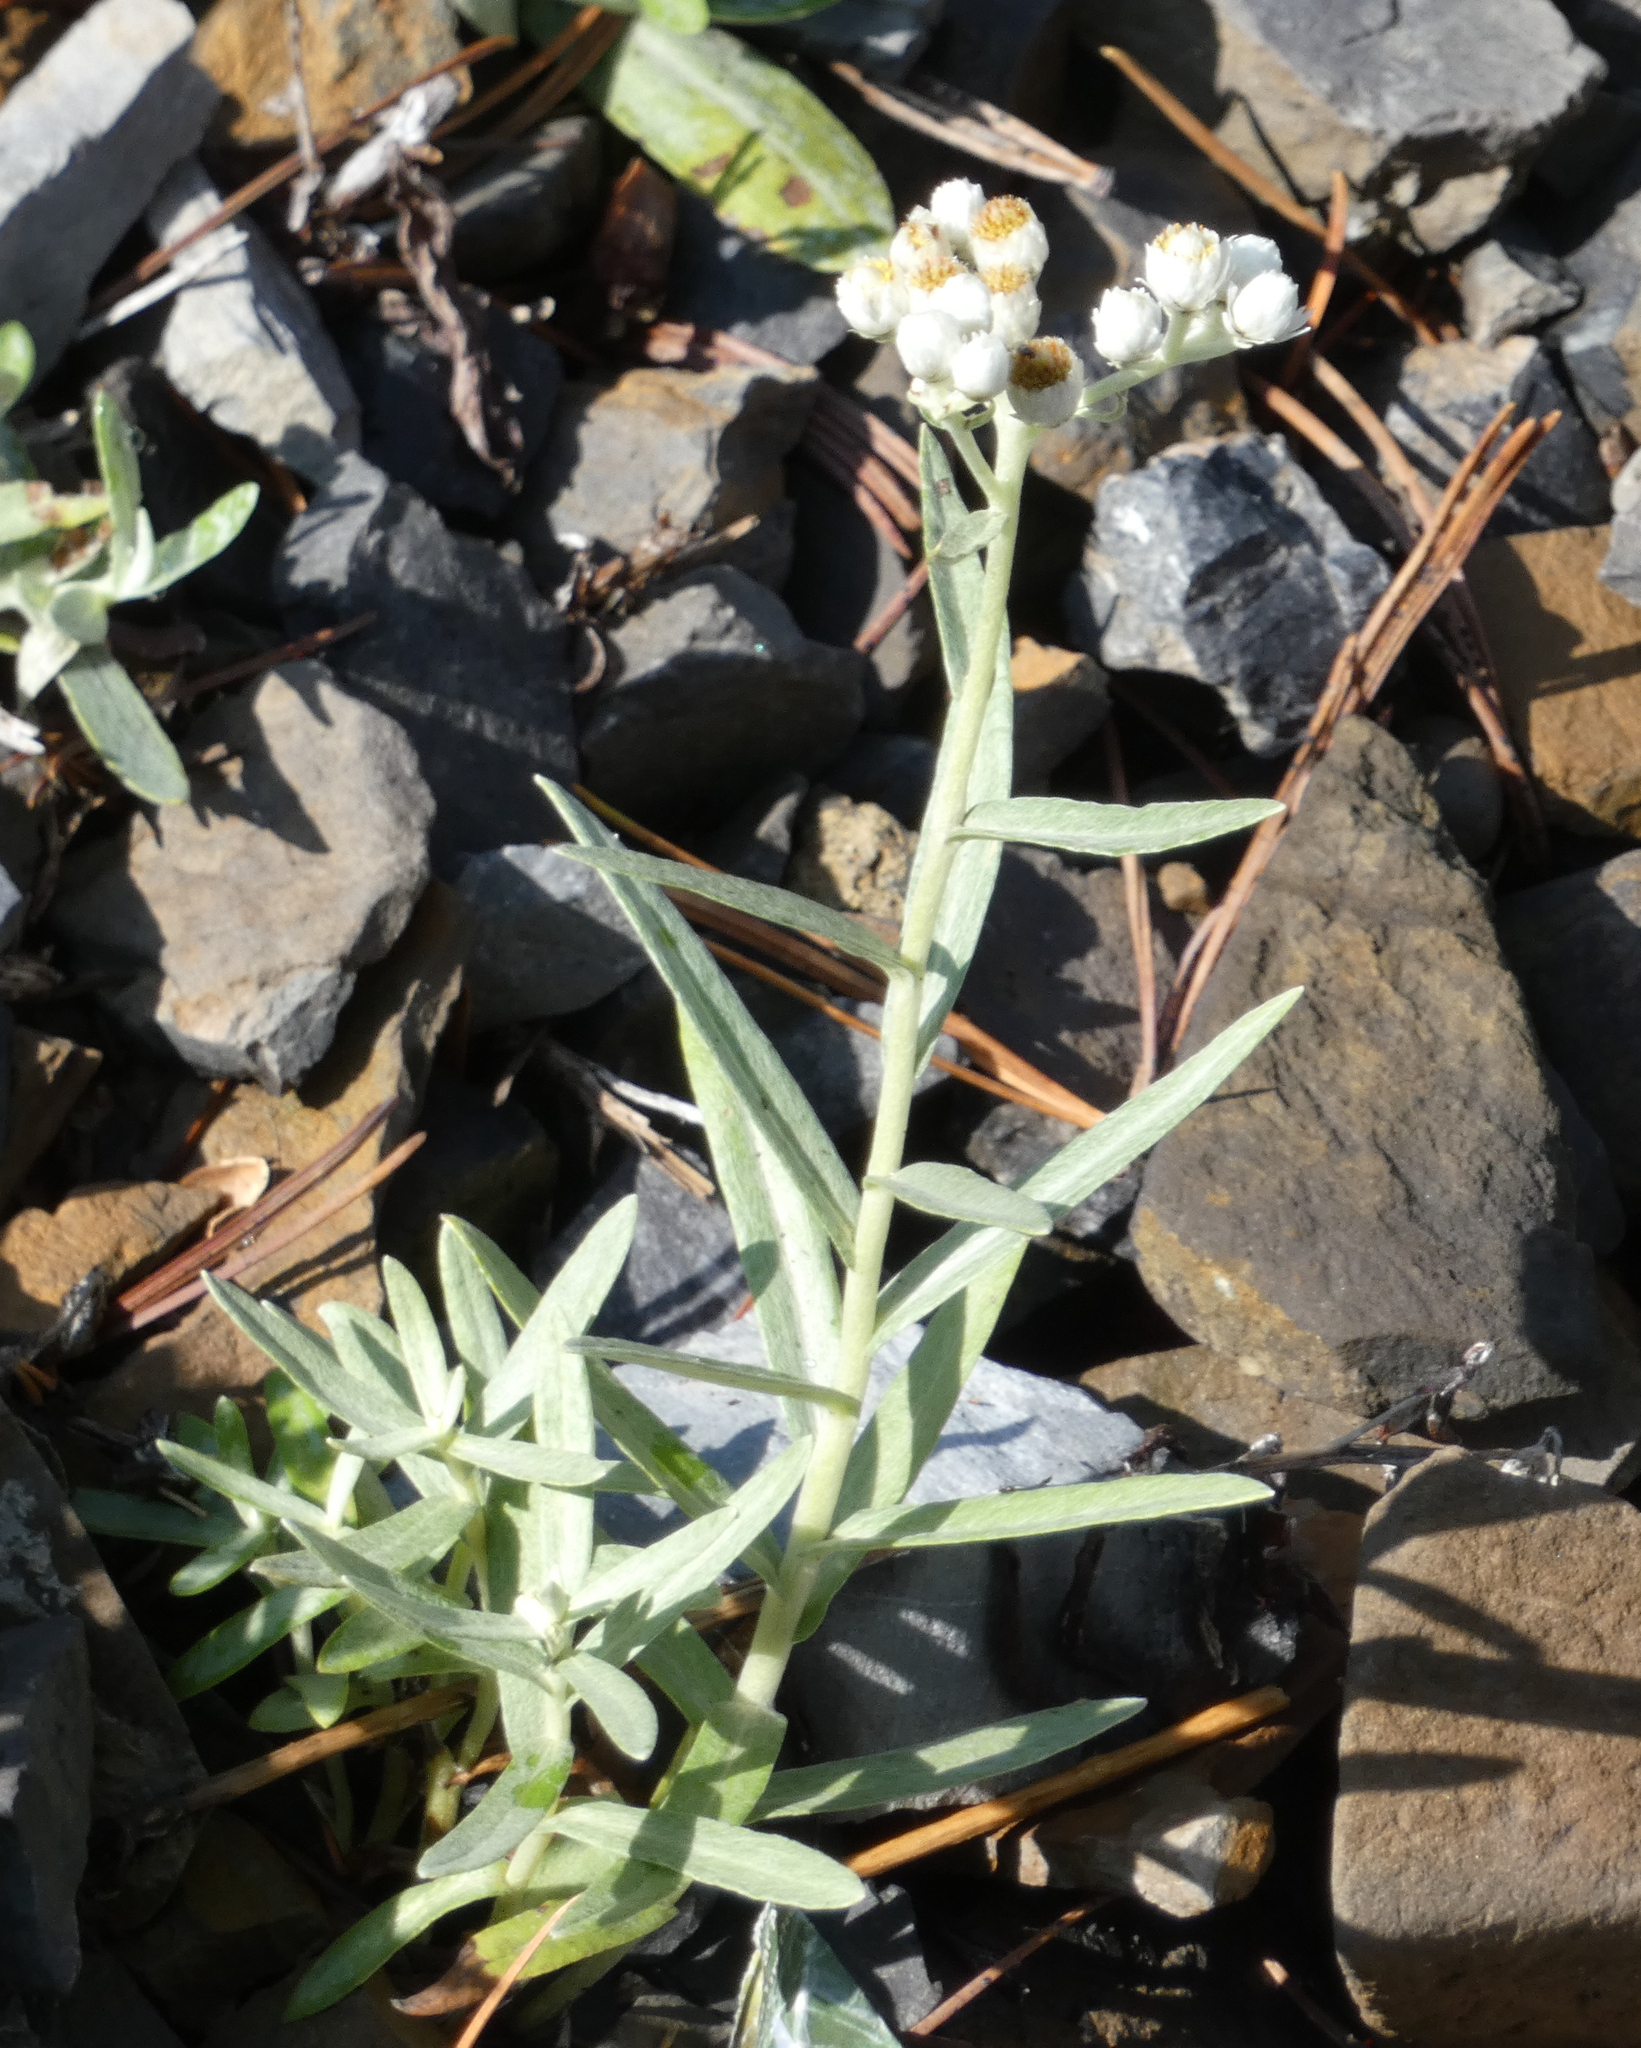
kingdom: Plantae
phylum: Tracheophyta
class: Magnoliopsida
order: Asterales
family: Asteraceae
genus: Anaphalis
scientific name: Anaphalis margaritacea
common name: Pearly everlasting
